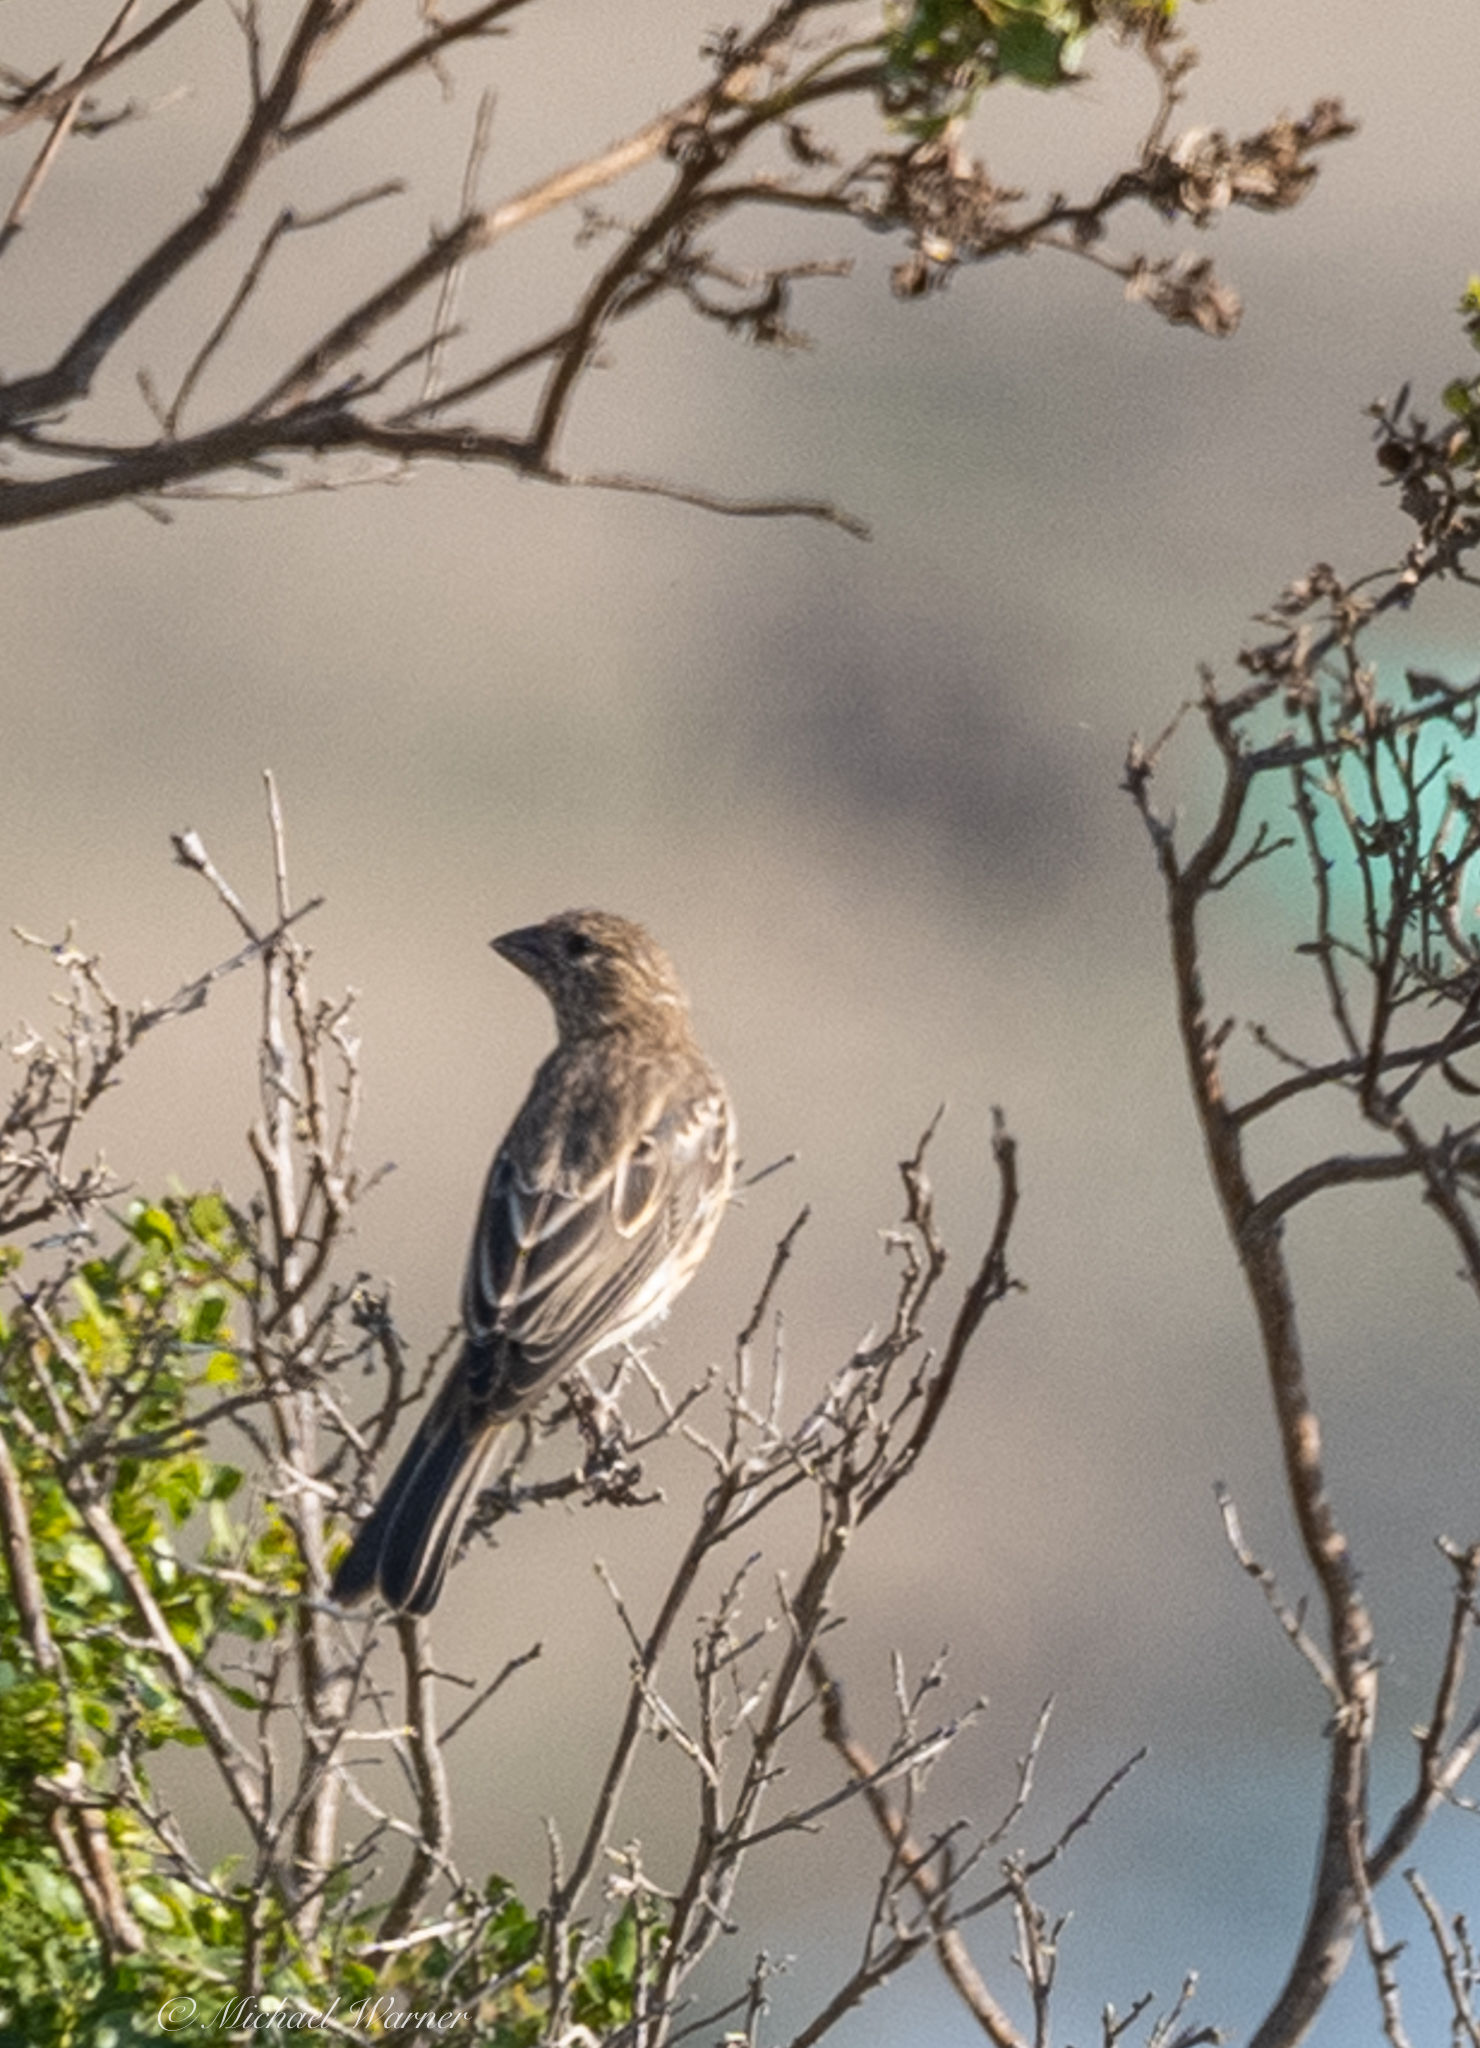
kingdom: Animalia
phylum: Chordata
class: Aves
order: Passeriformes
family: Fringillidae
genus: Haemorhous
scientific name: Haemorhous mexicanus
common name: House finch
